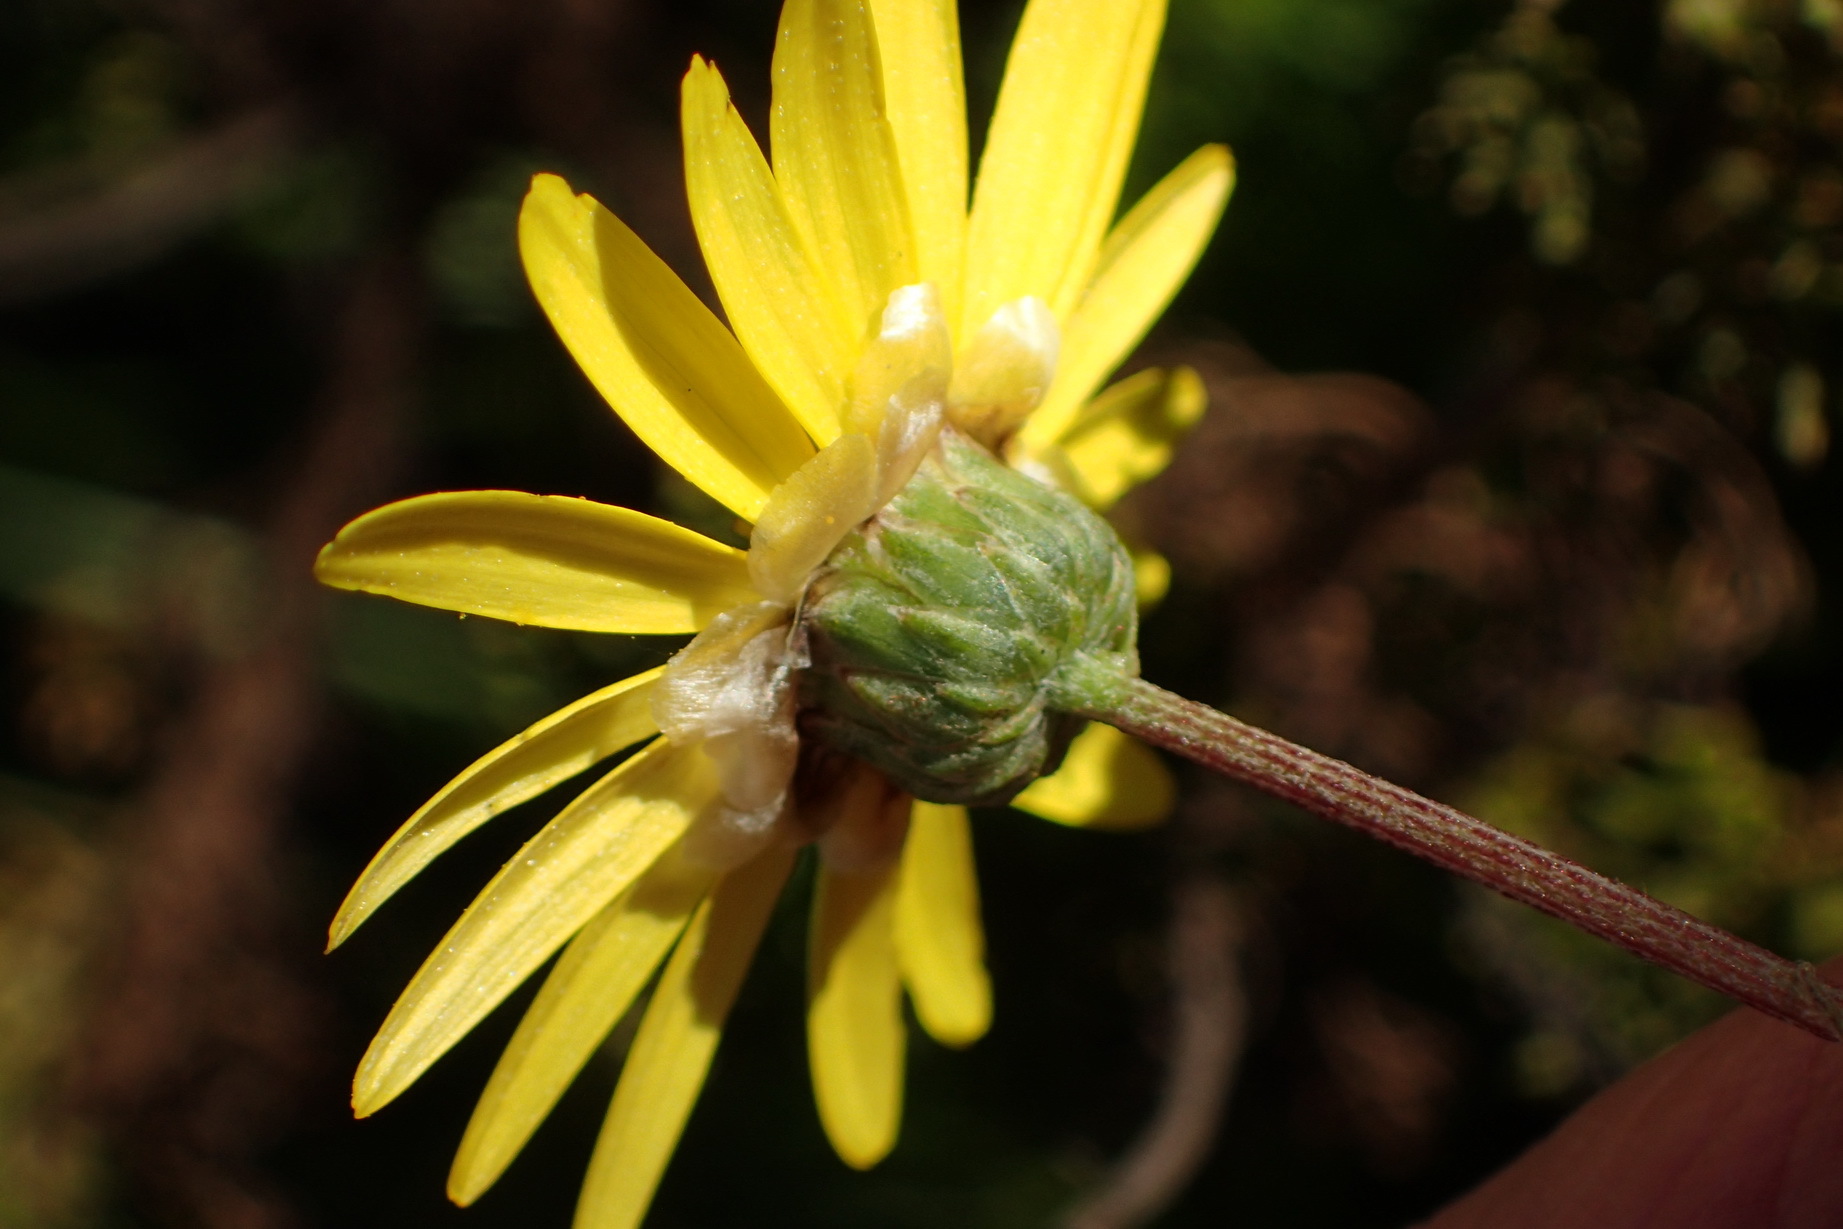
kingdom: Plantae
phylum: Tracheophyta
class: Magnoliopsida
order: Asterales
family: Asteraceae
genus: Ursinia
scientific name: Ursinia anethoides
